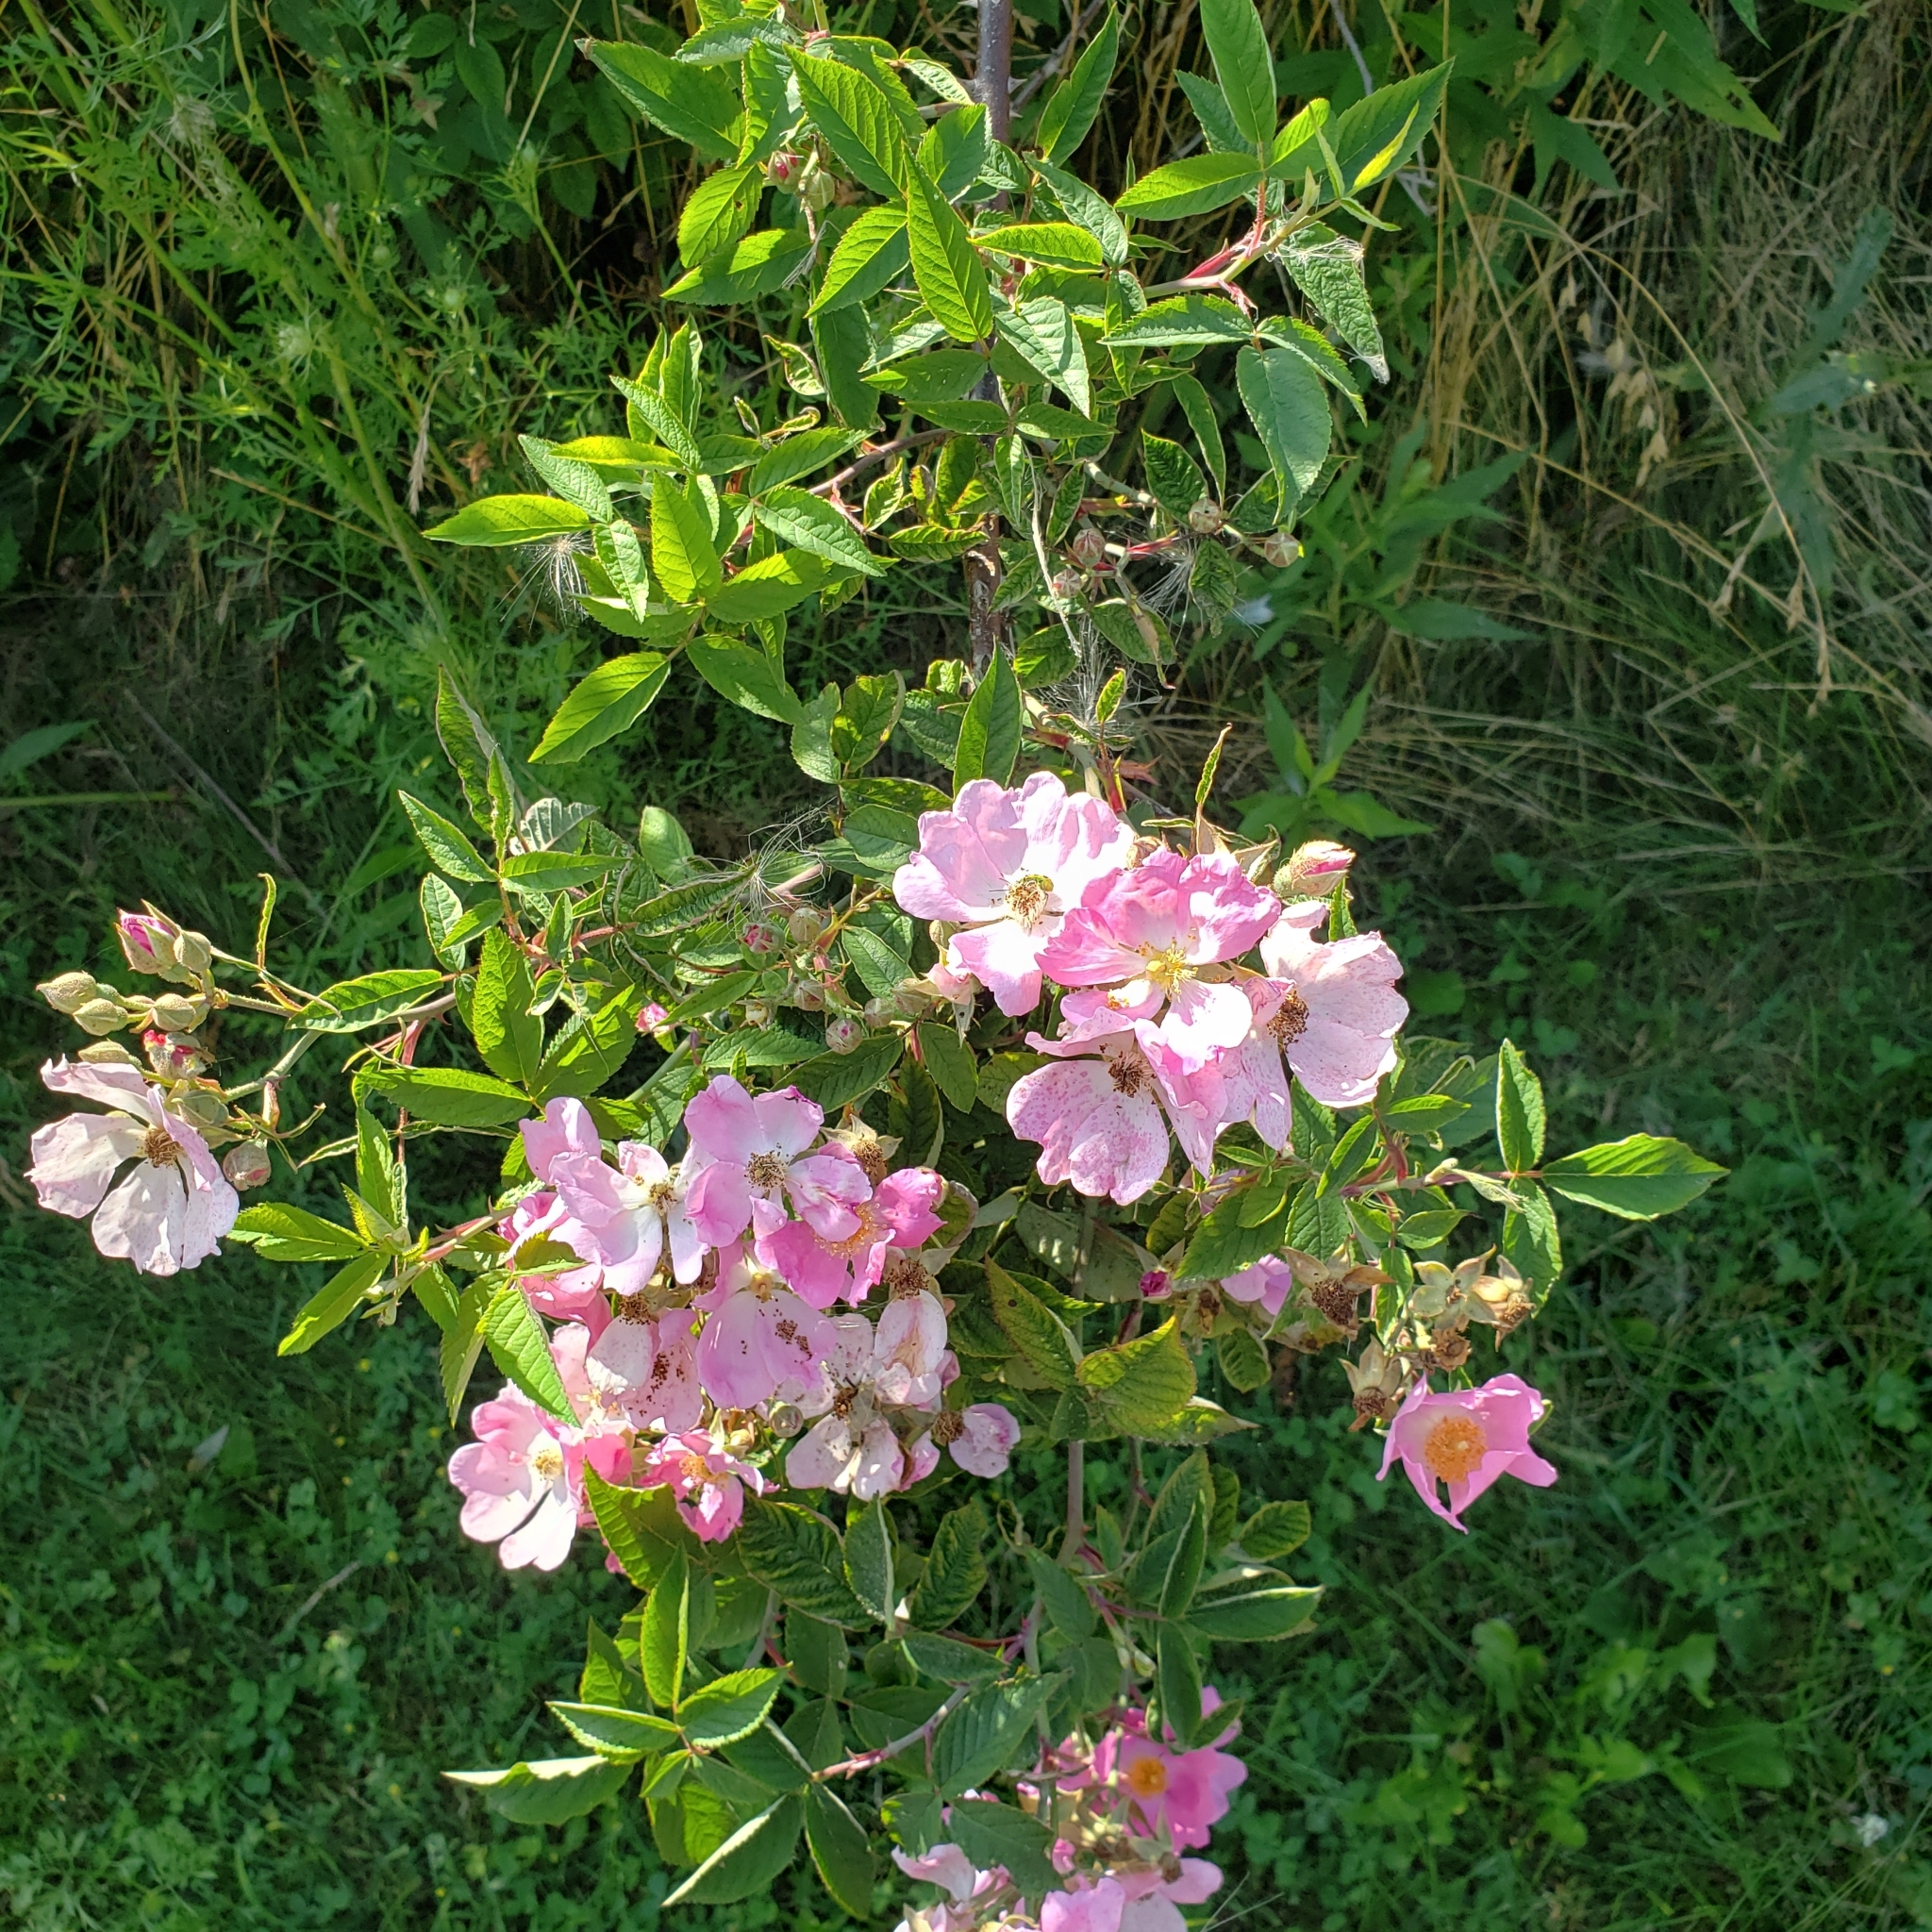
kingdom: Plantae
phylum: Tracheophyta
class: Magnoliopsida
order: Rosales
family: Rosaceae
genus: Rosa
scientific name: Rosa setigera
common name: Prairie rose
